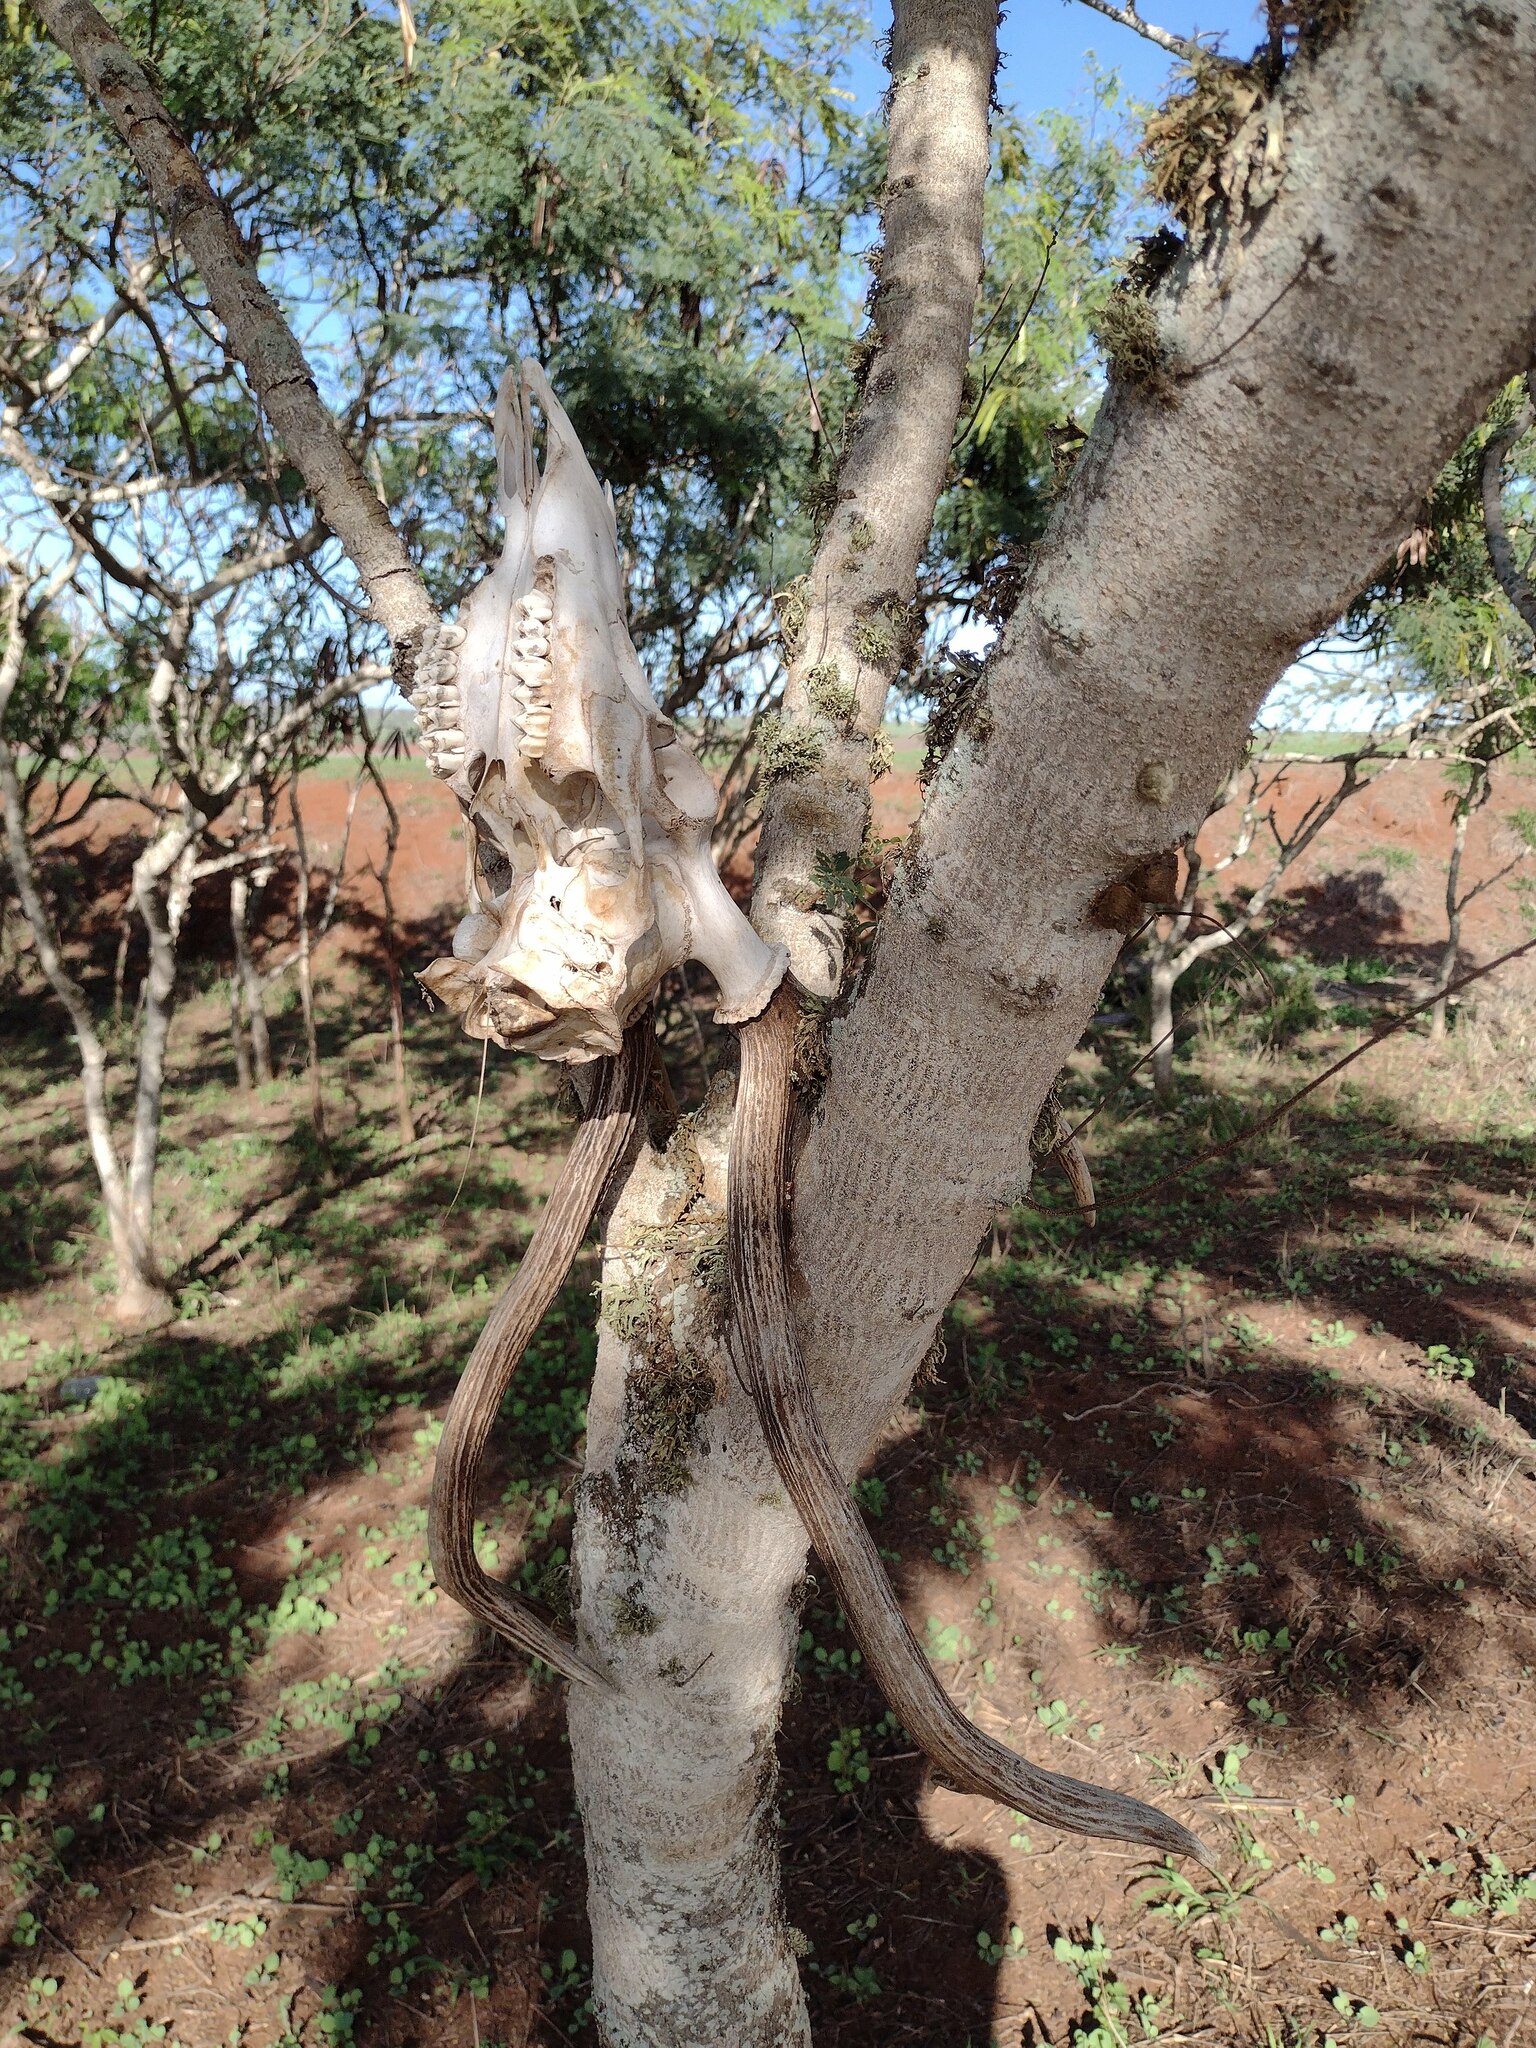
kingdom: Animalia
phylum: Chordata
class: Mammalia
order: Artiodactyla
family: Cervidae
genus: Axis
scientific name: Axis axis
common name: Chital
